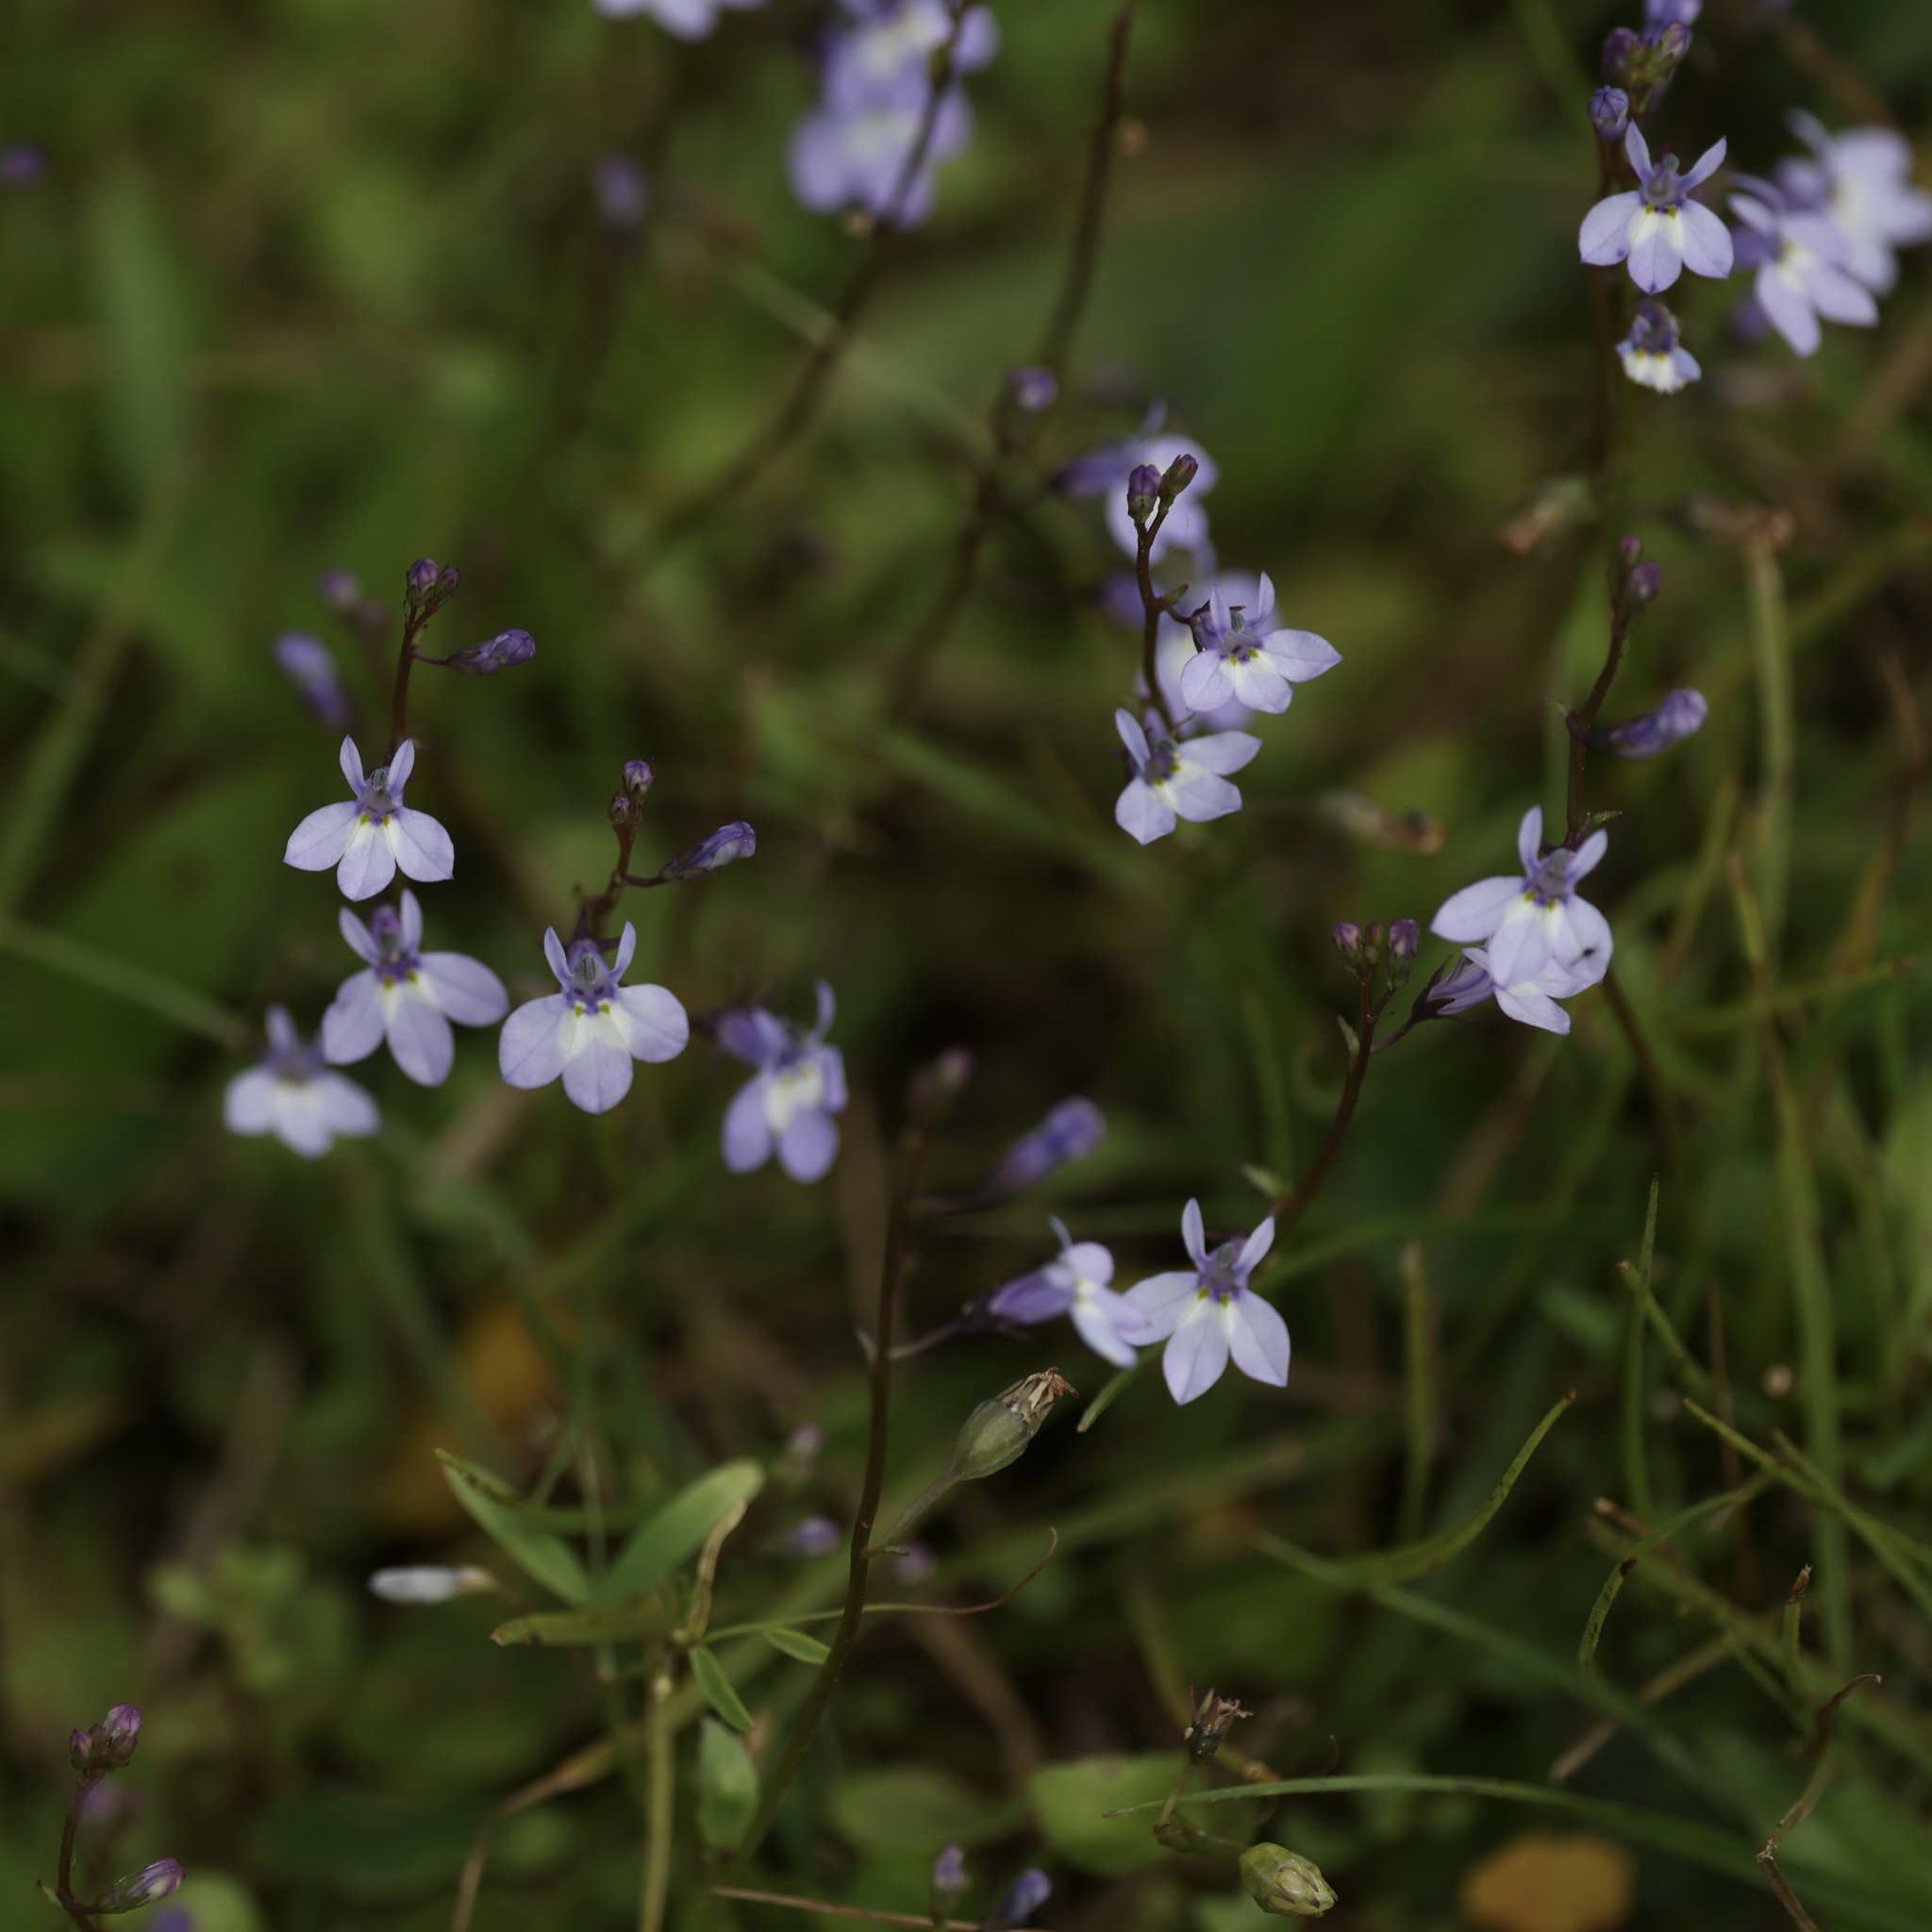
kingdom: Plantae
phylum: Tracheophyta
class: Magnoliopsida
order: Asterales
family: Campanulaceae
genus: Lobelia
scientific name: Lobelia feayana
